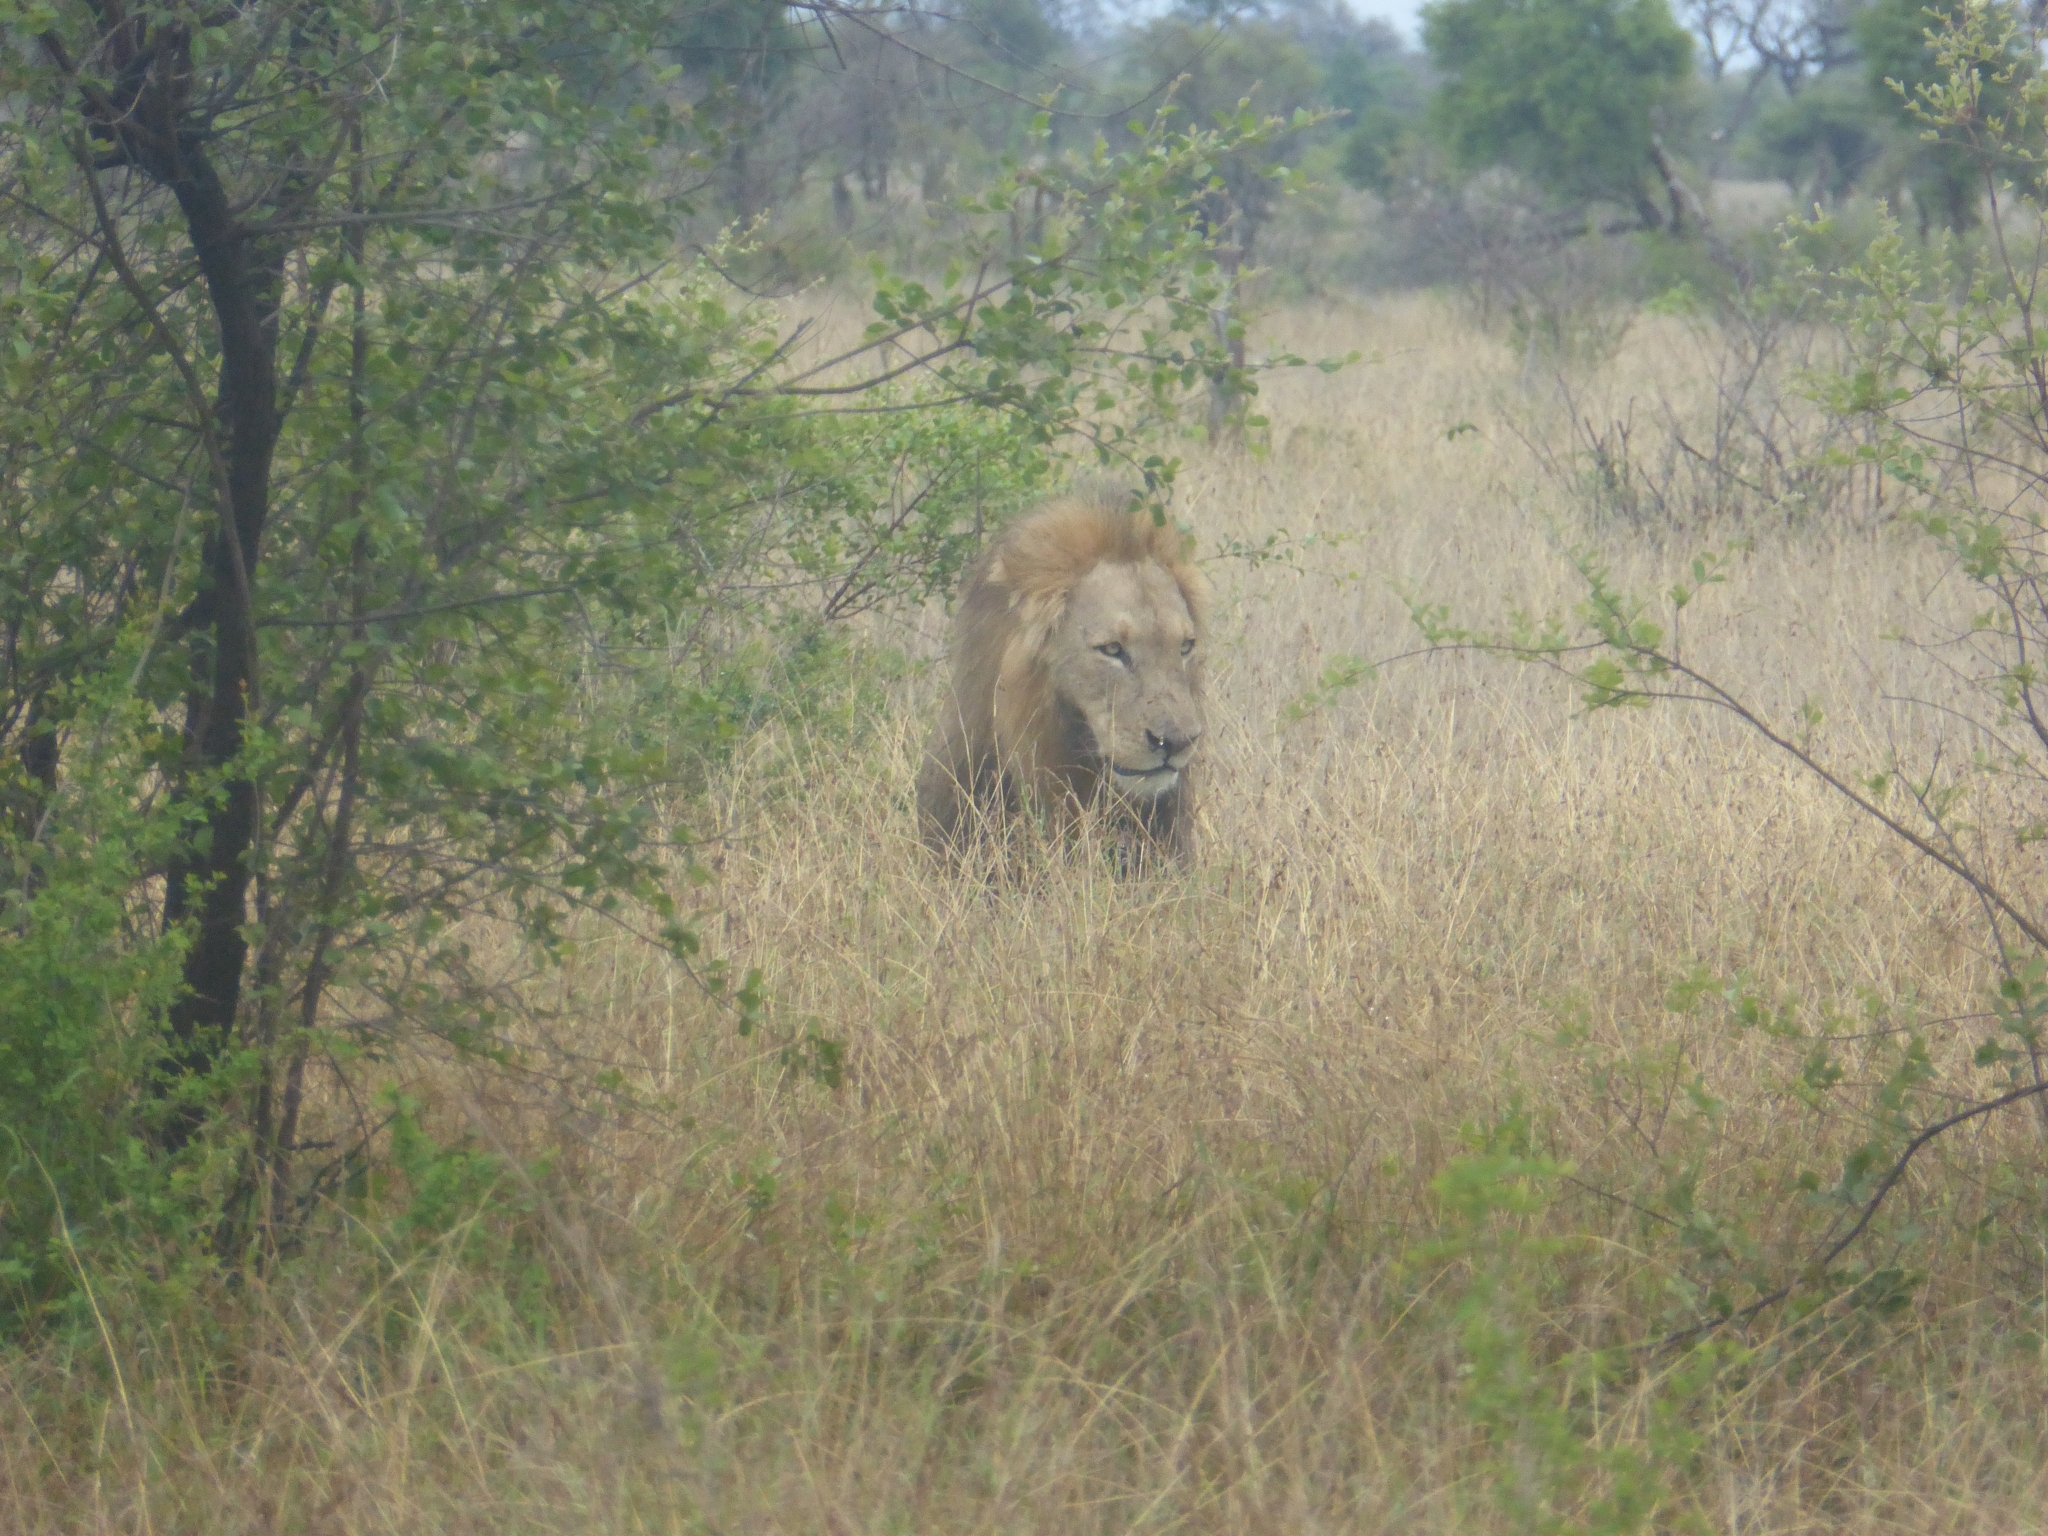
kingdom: Animalia
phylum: Chordata
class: Mammalia
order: Carnivora
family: Felidae
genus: Panthera
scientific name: Panthera leo
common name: Lion
